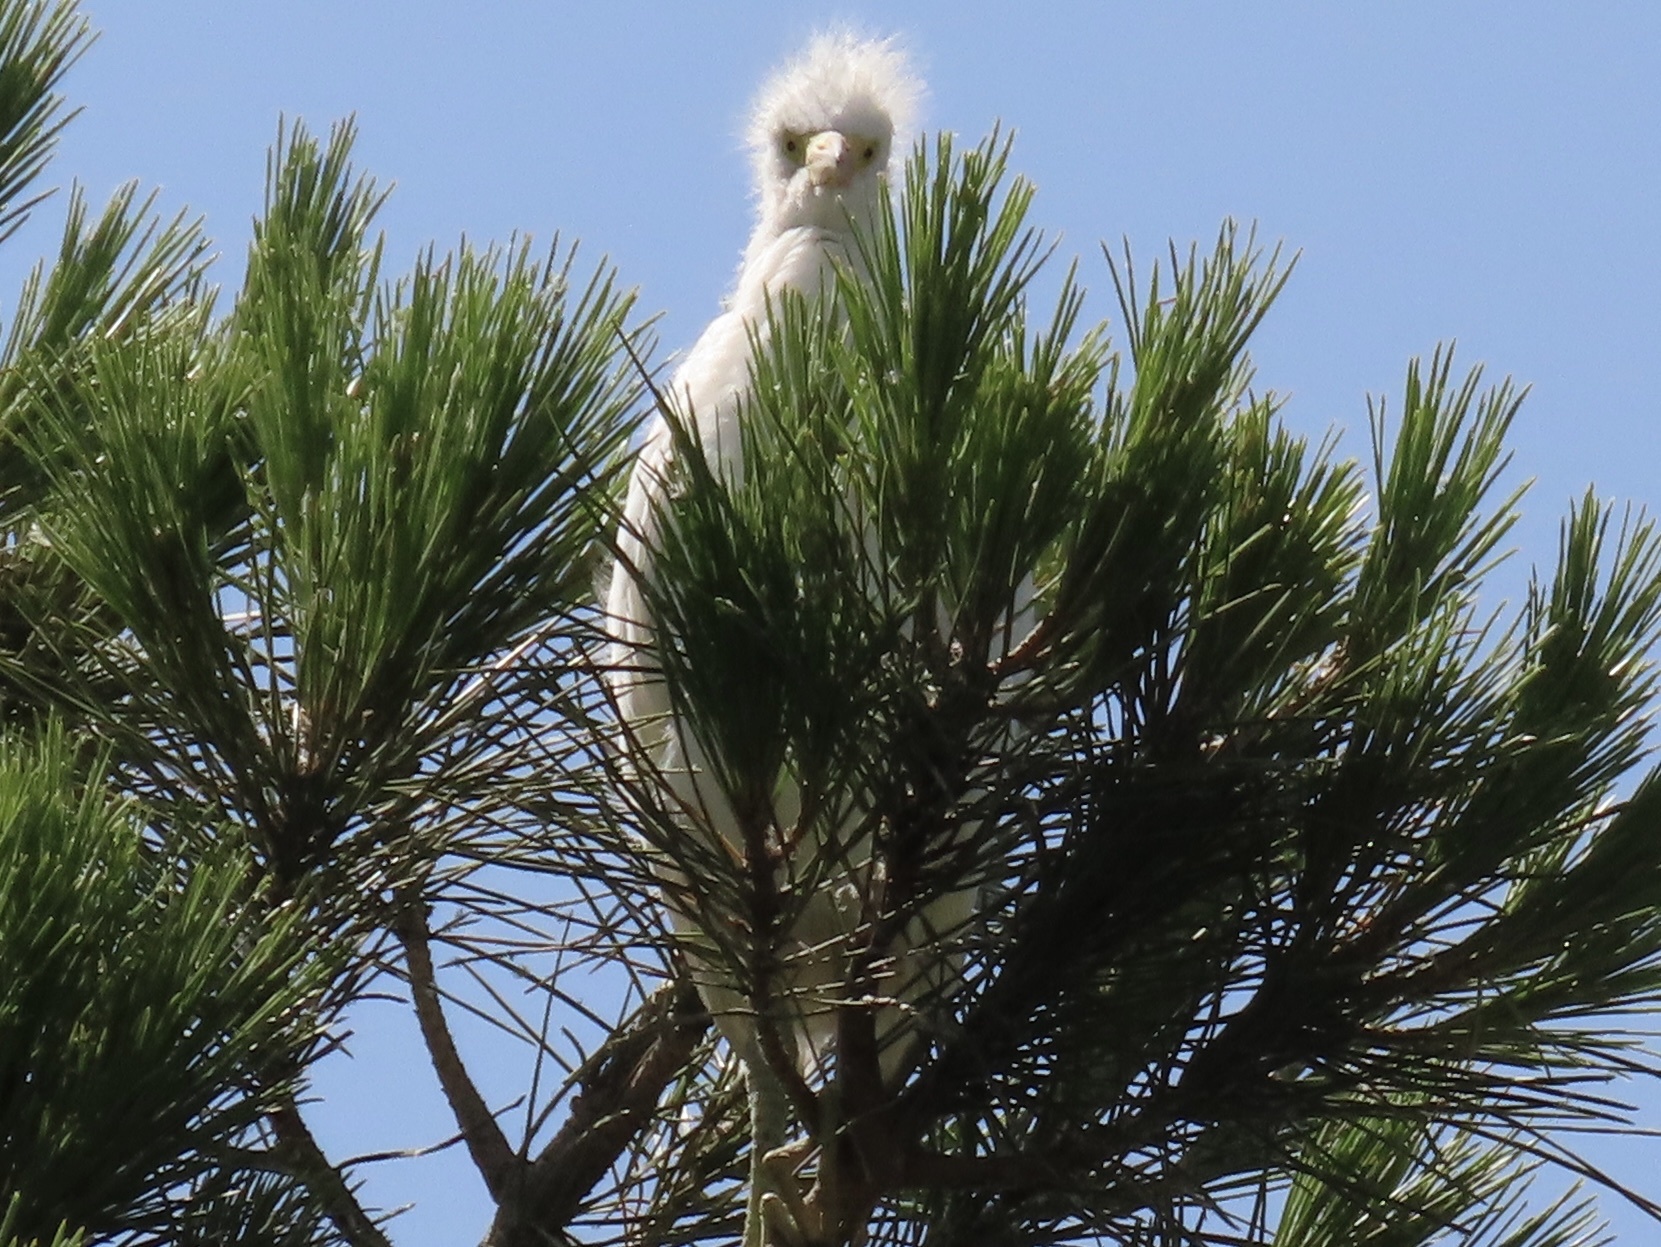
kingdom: Animalia
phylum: Chordata
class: Aves
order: Pelecaniformes
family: Ardeidae
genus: Egretta
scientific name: Egretta thula
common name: Snowy egret
